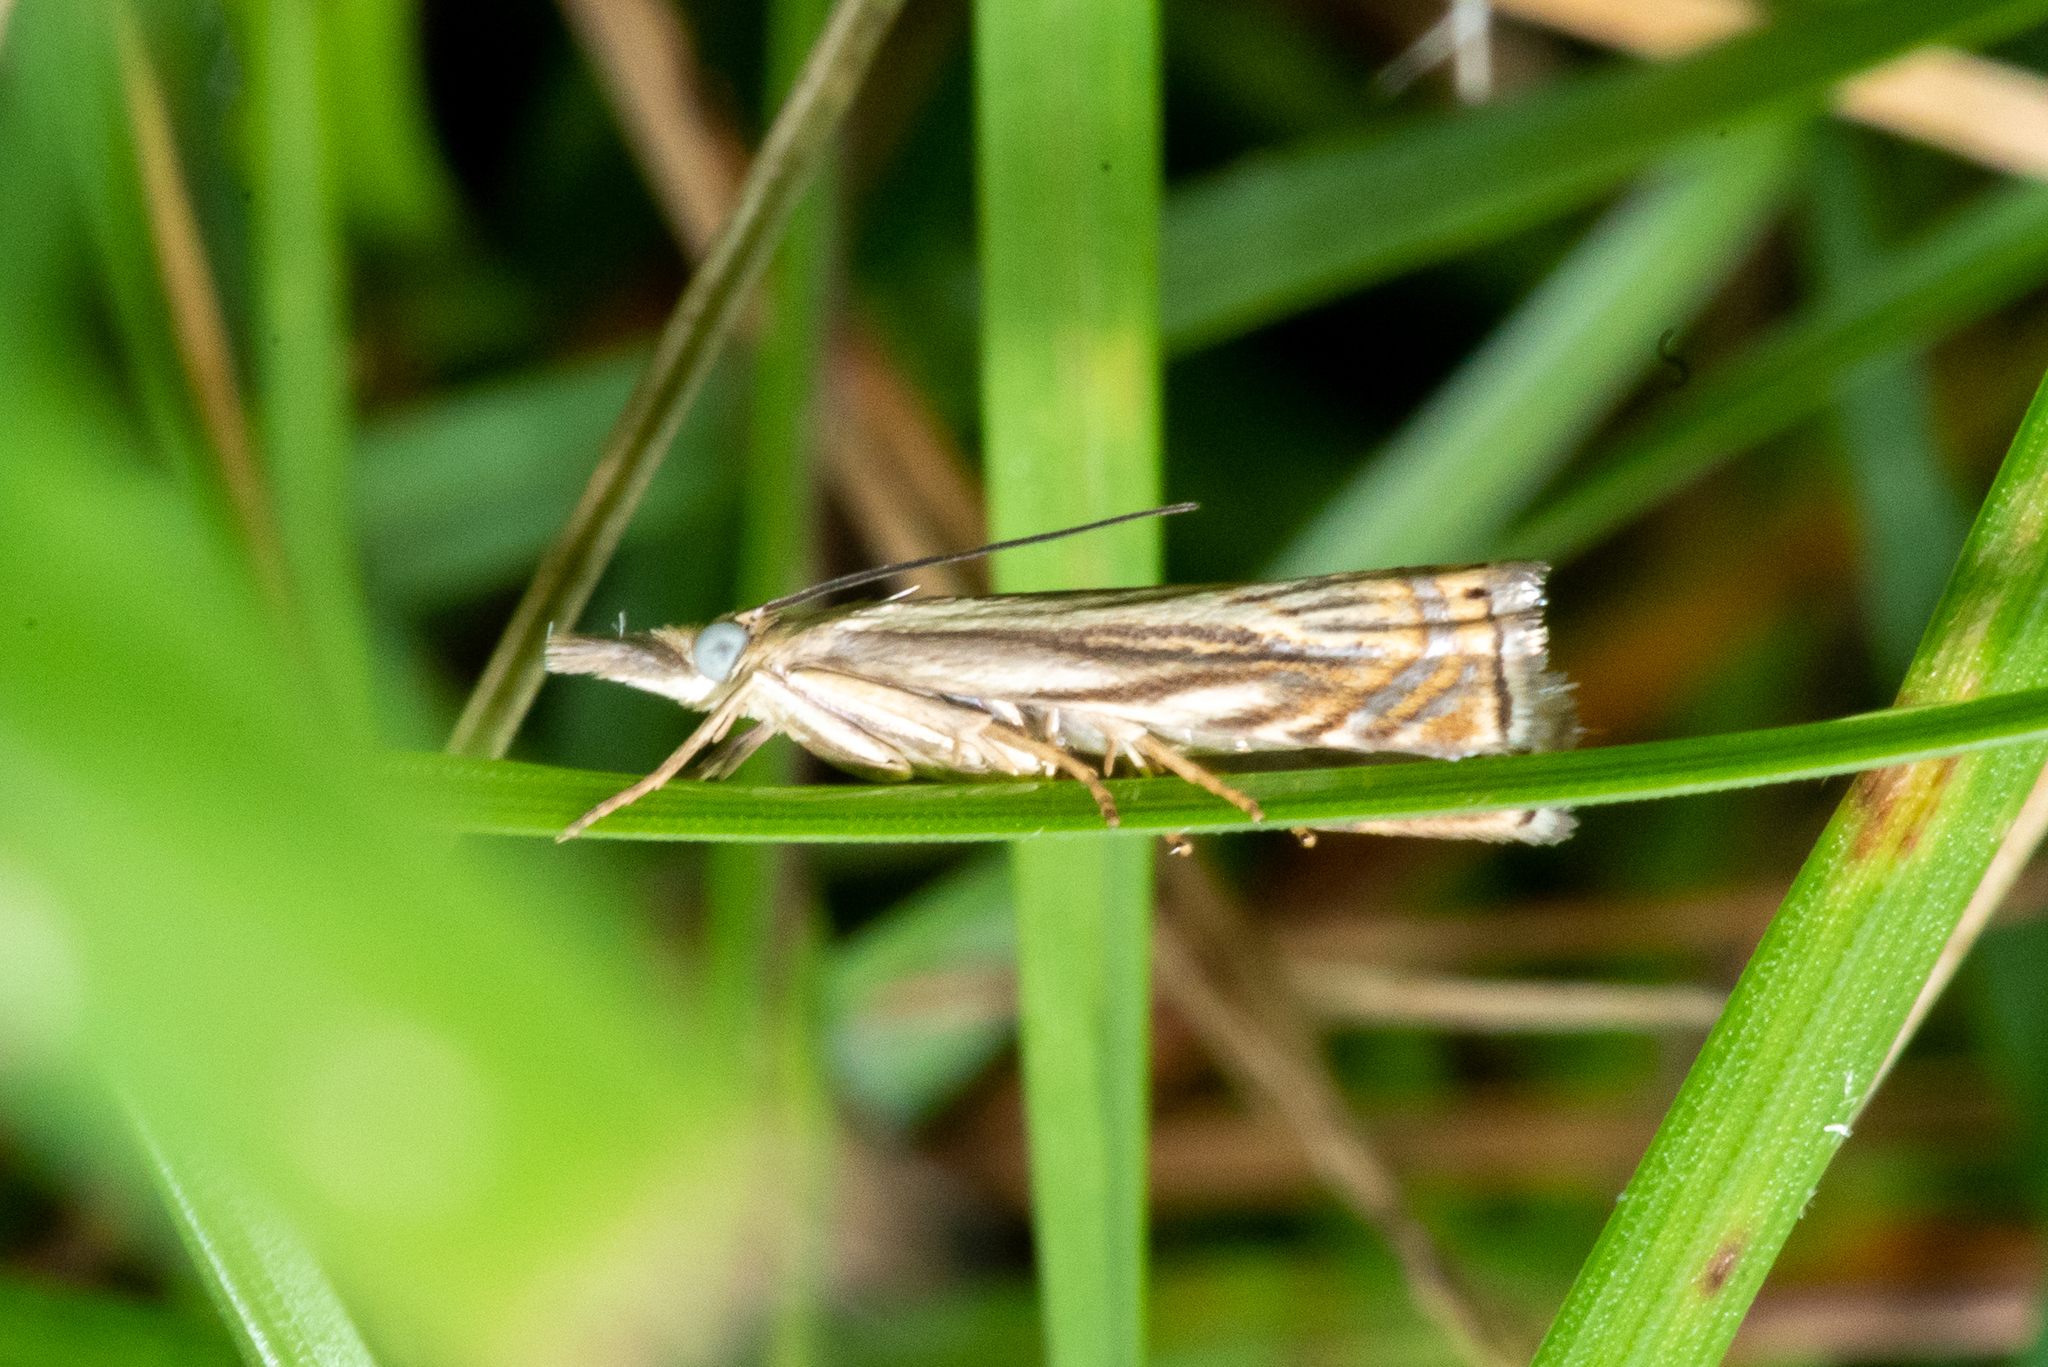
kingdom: Animalia
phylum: Arthropoda
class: Insecta
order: Lepidoptera
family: Crambidae
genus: Chrysoteuchia
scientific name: Chrysoteuchia topiarius
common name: Topiary grass-veneer
